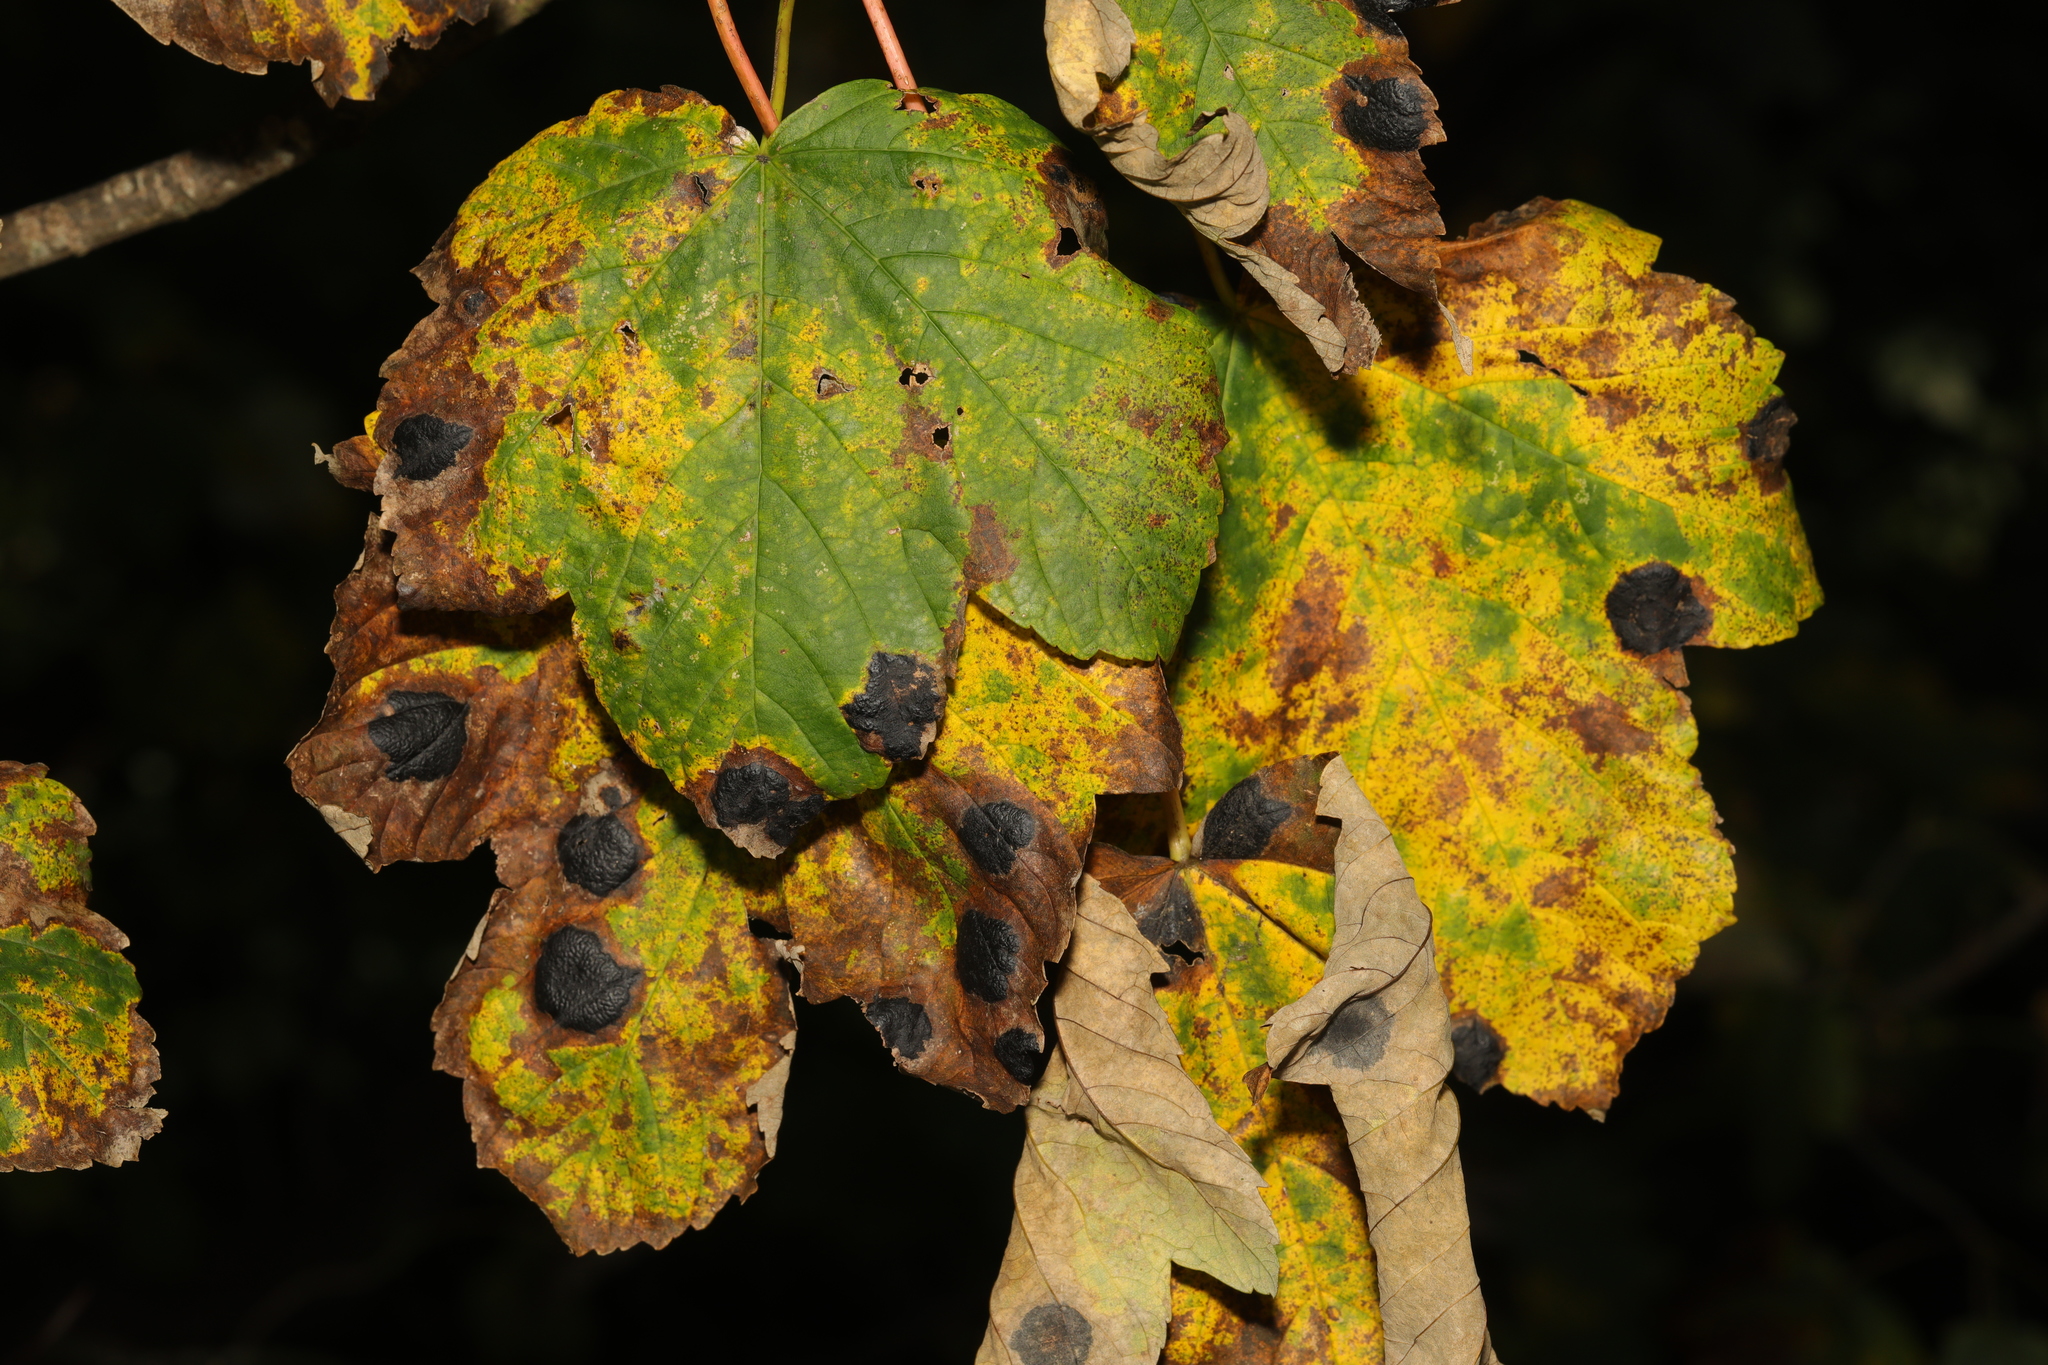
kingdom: Fungi
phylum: Ascomycota
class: Leotiomycetes
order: Rhytismatales
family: Rhytismataceae
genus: Rhytisma
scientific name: Rhytisma acerinum
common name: European tar spot
